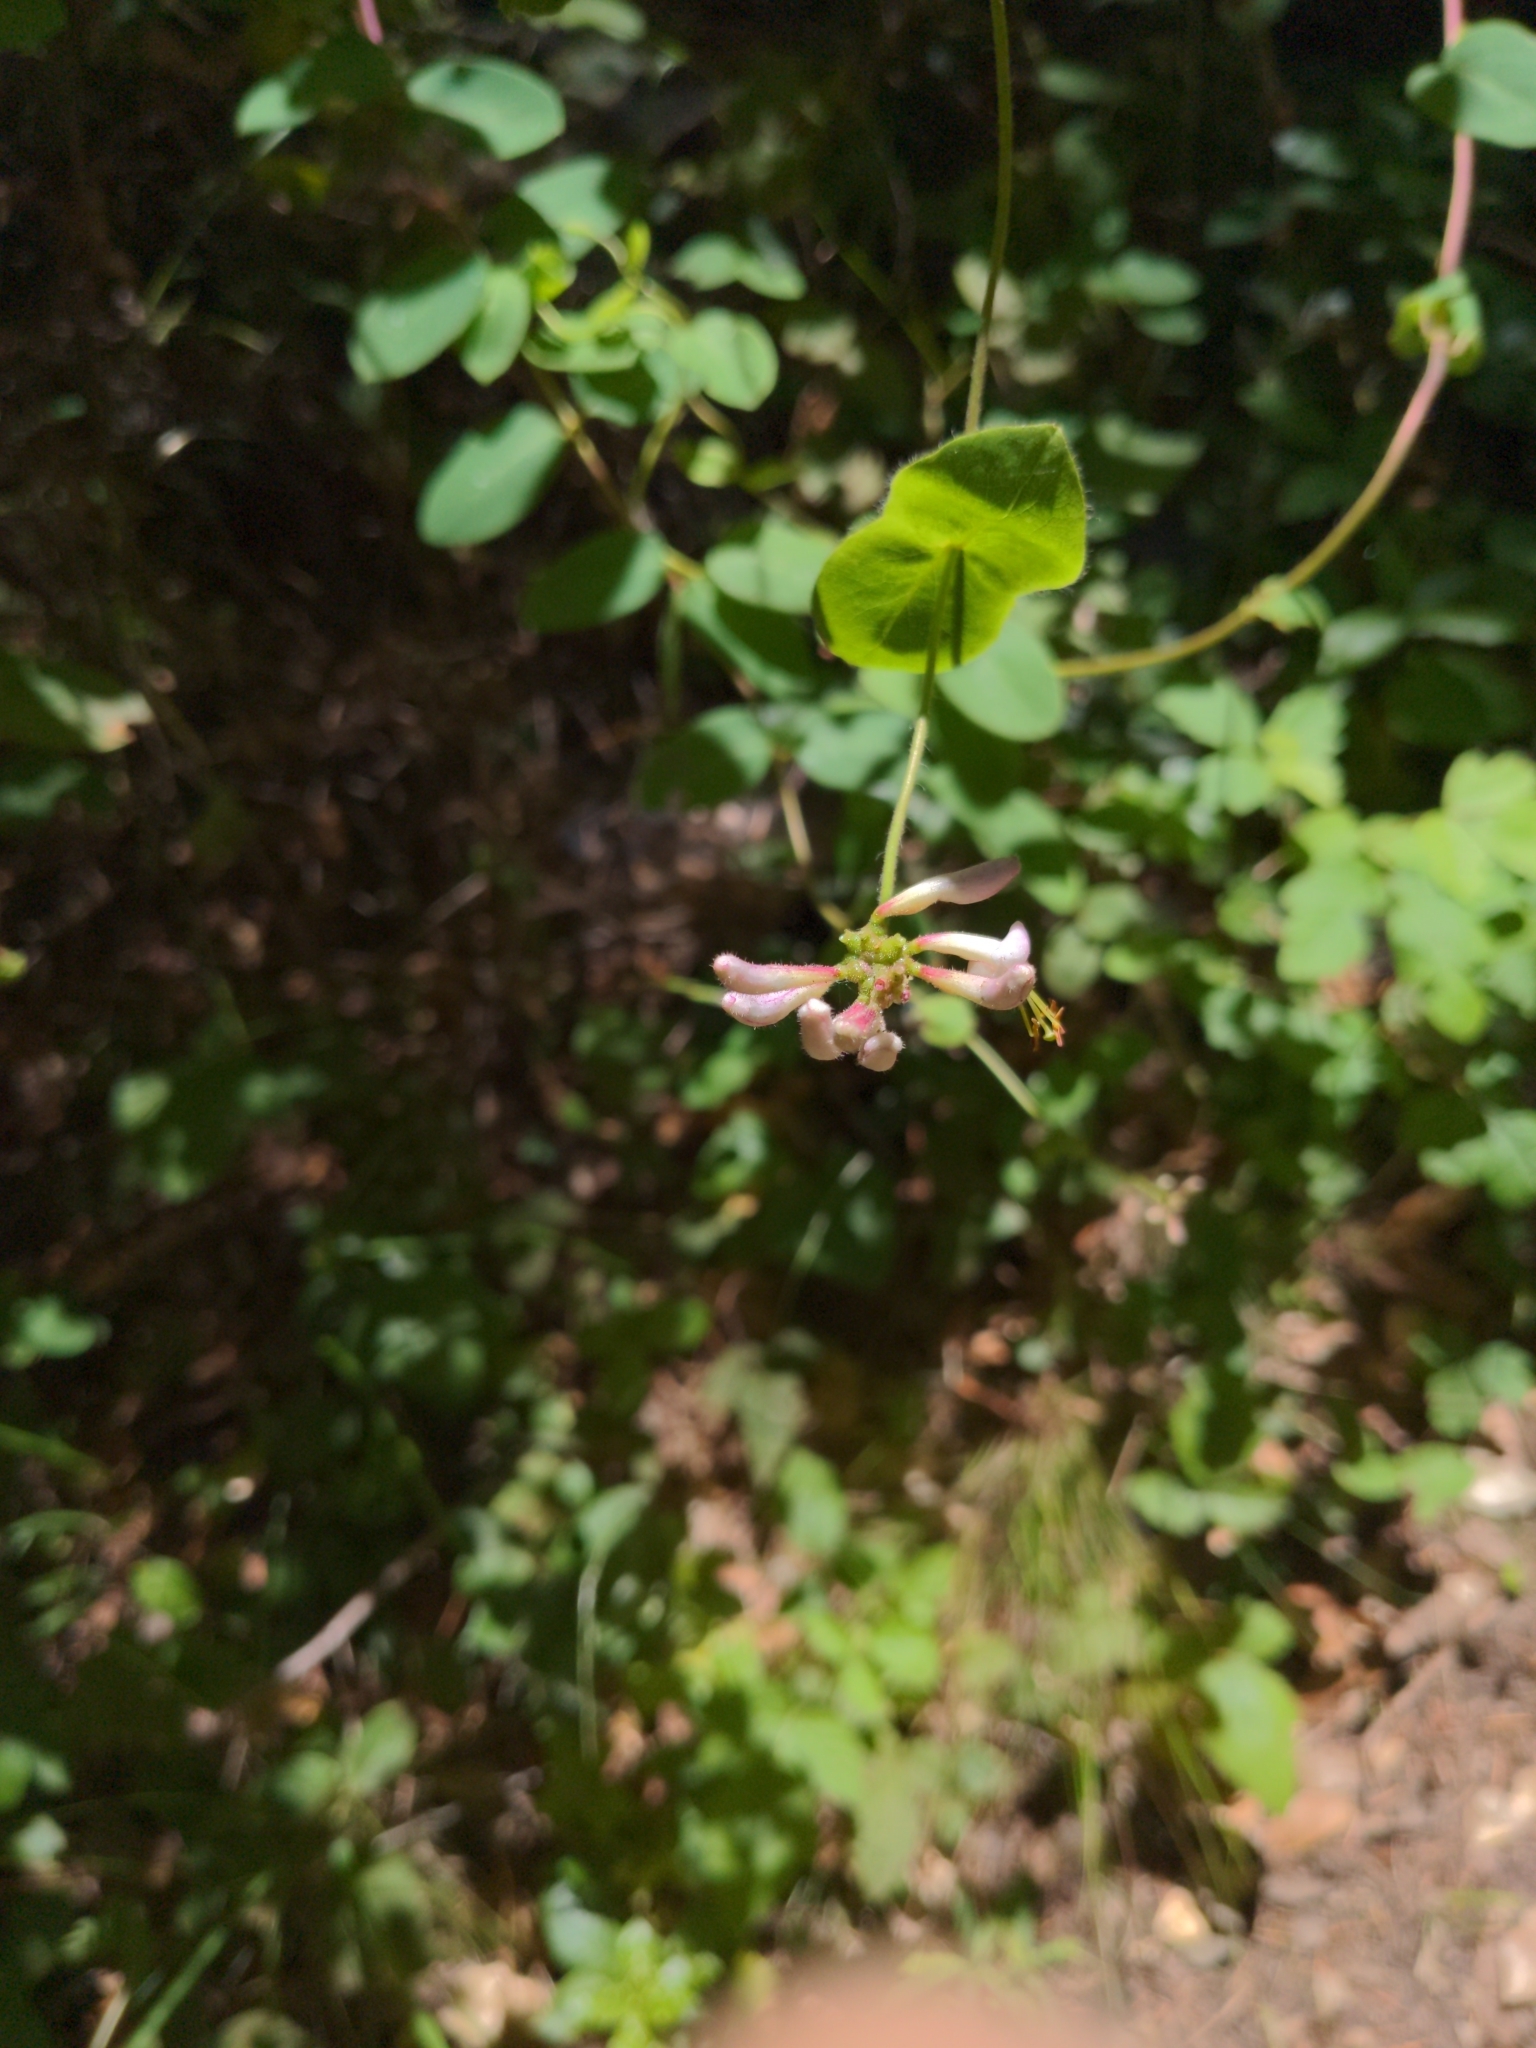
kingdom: Plantae
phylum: Tracheophyta
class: Magnoliopsida
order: Dipsacales
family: Caprifoliaceae
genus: Lonicera
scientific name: Lonicera hispidula
